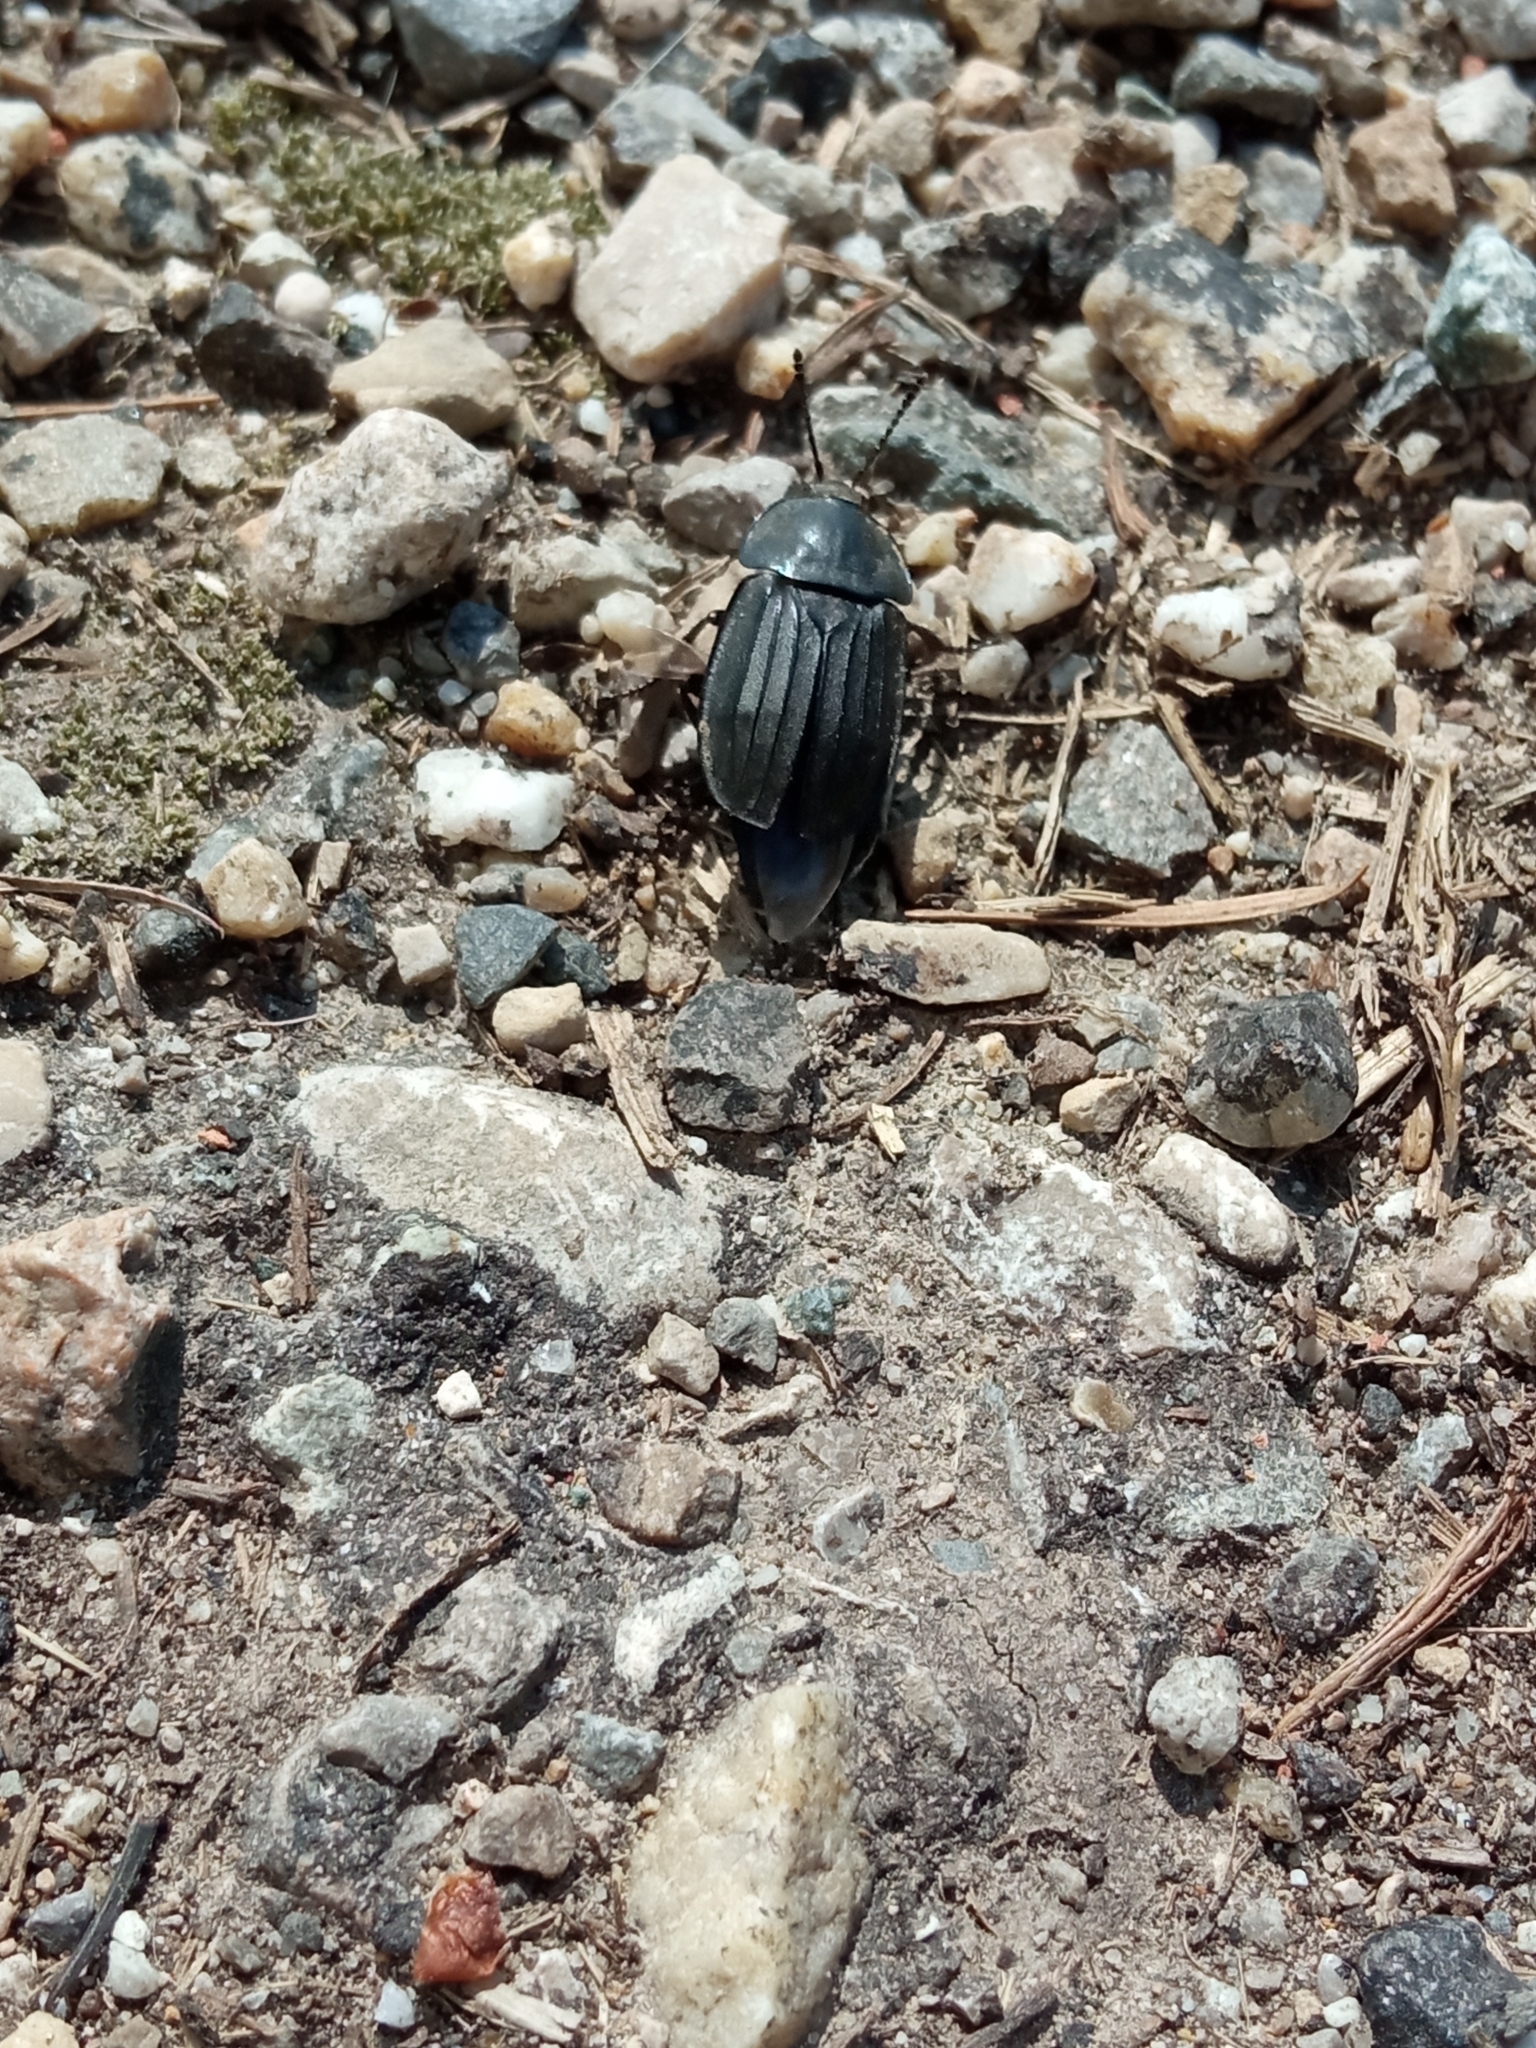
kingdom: Animalia
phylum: Arthropoda
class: Insecta
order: Coleoptera
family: Staphylinidae
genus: Silpha
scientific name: Silpha tristis
